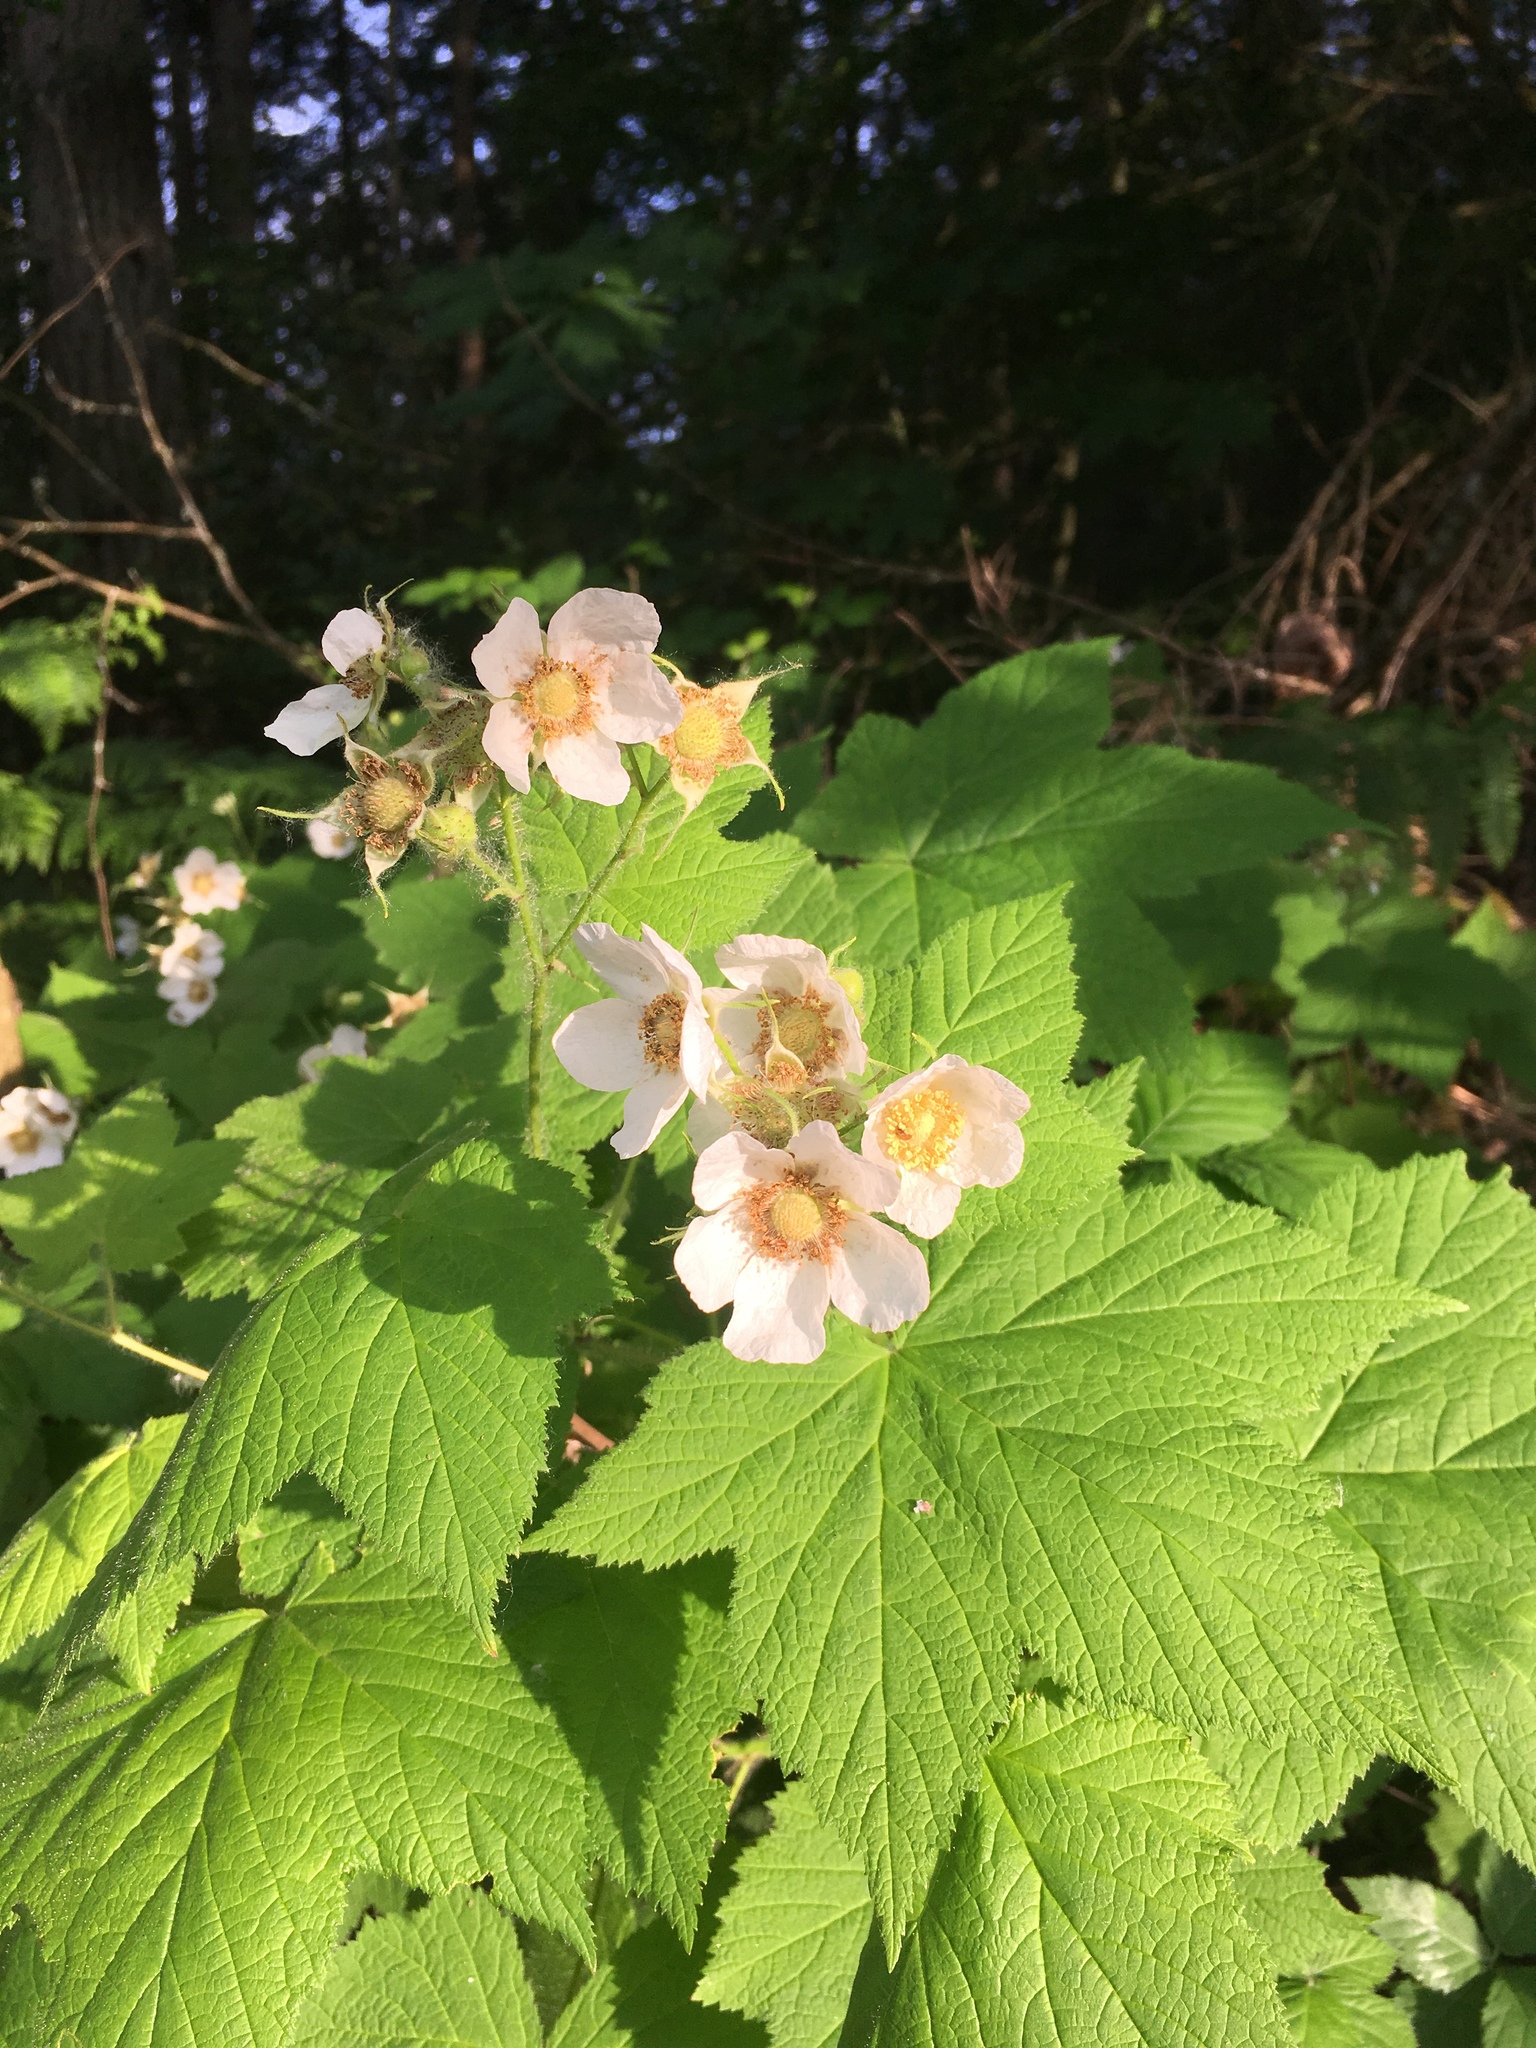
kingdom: Plantae
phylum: Tracheophyta
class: Magnoliopsida
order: Rosales
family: Rosaceae
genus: Rubus
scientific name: Rubus parviflorus
